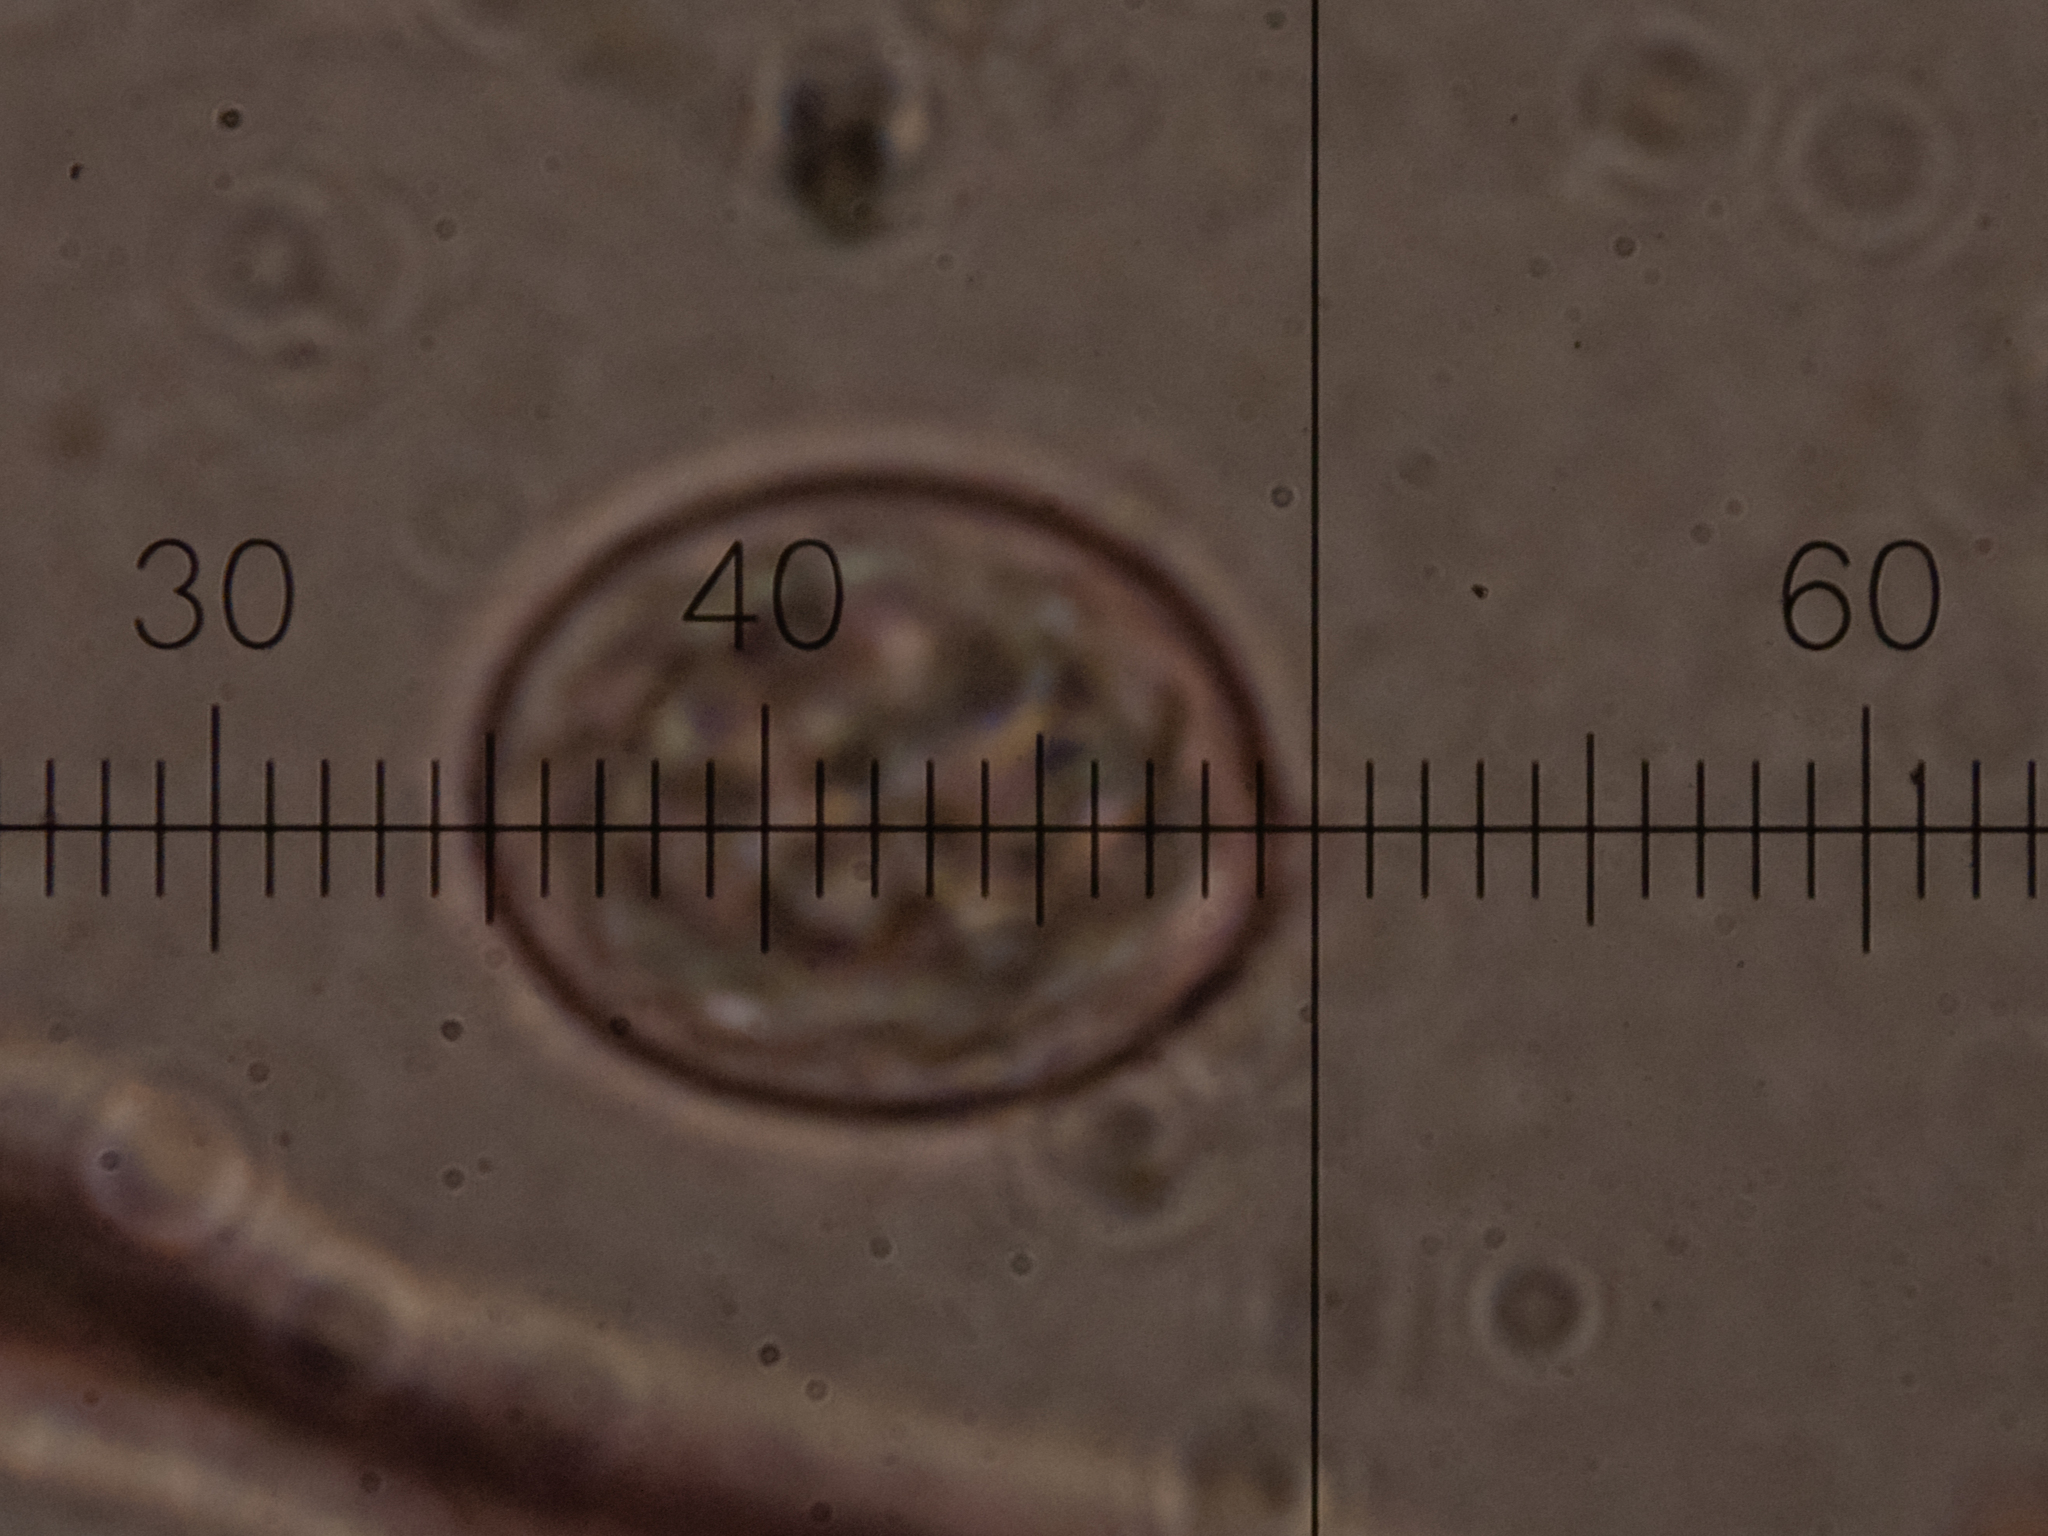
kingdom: Fungi
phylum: Basidiomycota
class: Tremellomycetes
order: Tremellales
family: Tremellaceae
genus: Tremella
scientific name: Tremella mesenterica
